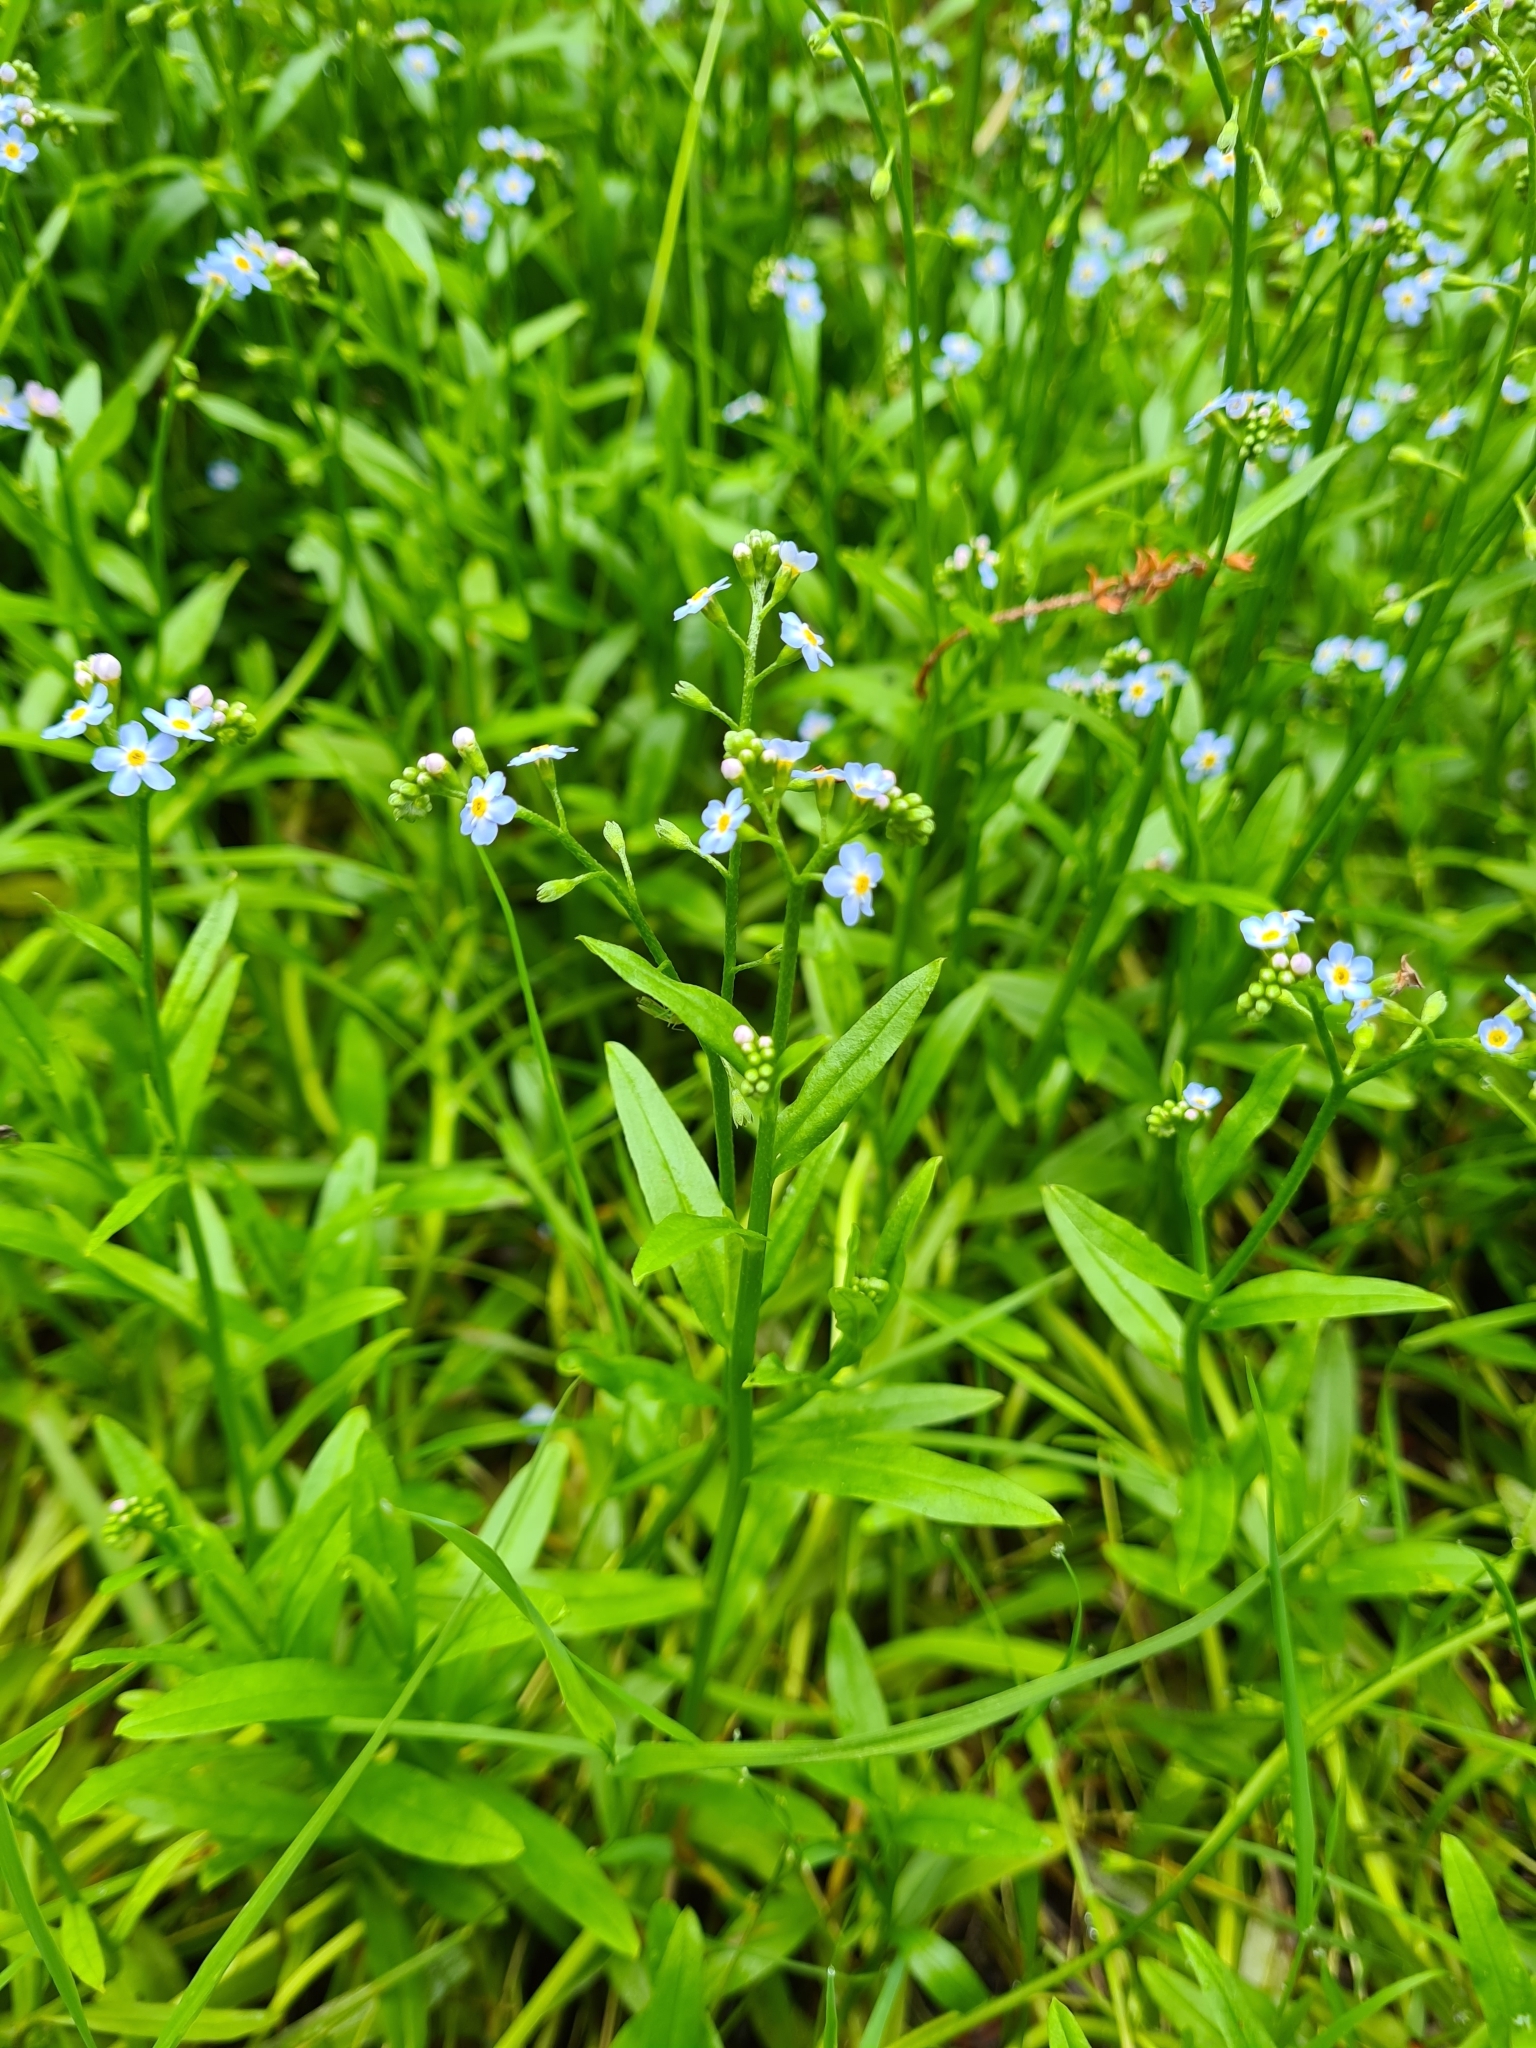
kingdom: Plantae
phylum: Tracheophyta
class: Magnoliopsida
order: Boraginales
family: Boraginaceae
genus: Myosotis
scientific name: Myosotis scorpioides
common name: Water forget-me-not
